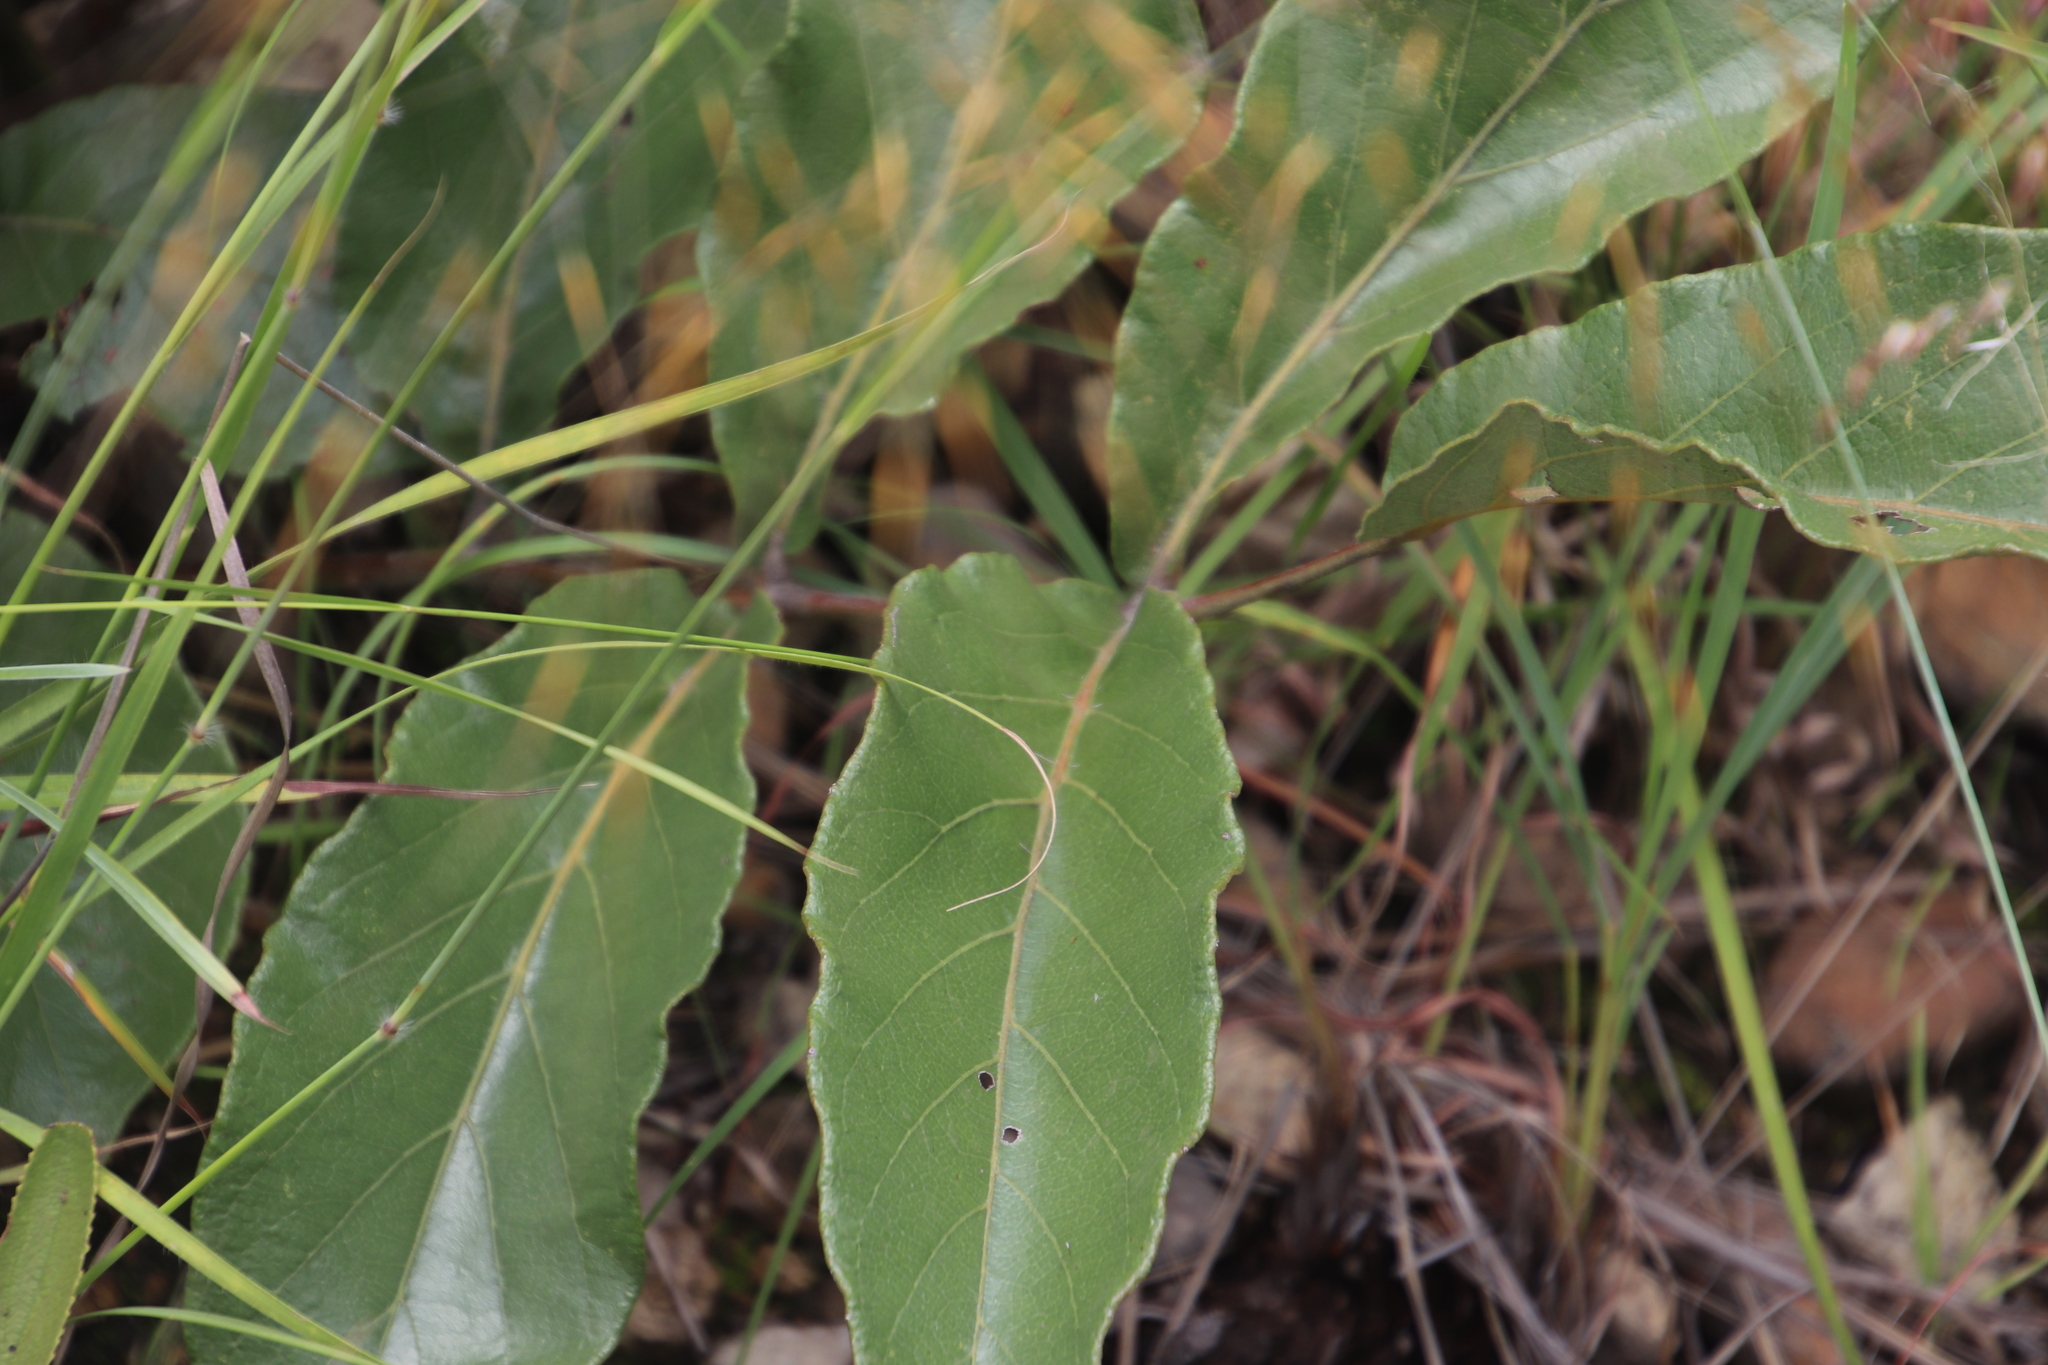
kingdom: Plantae
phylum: Tracheophyta
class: Magnoliopsida
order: Sapindales
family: Anacardiaceae
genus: Lannea
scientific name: Lannea edulis
